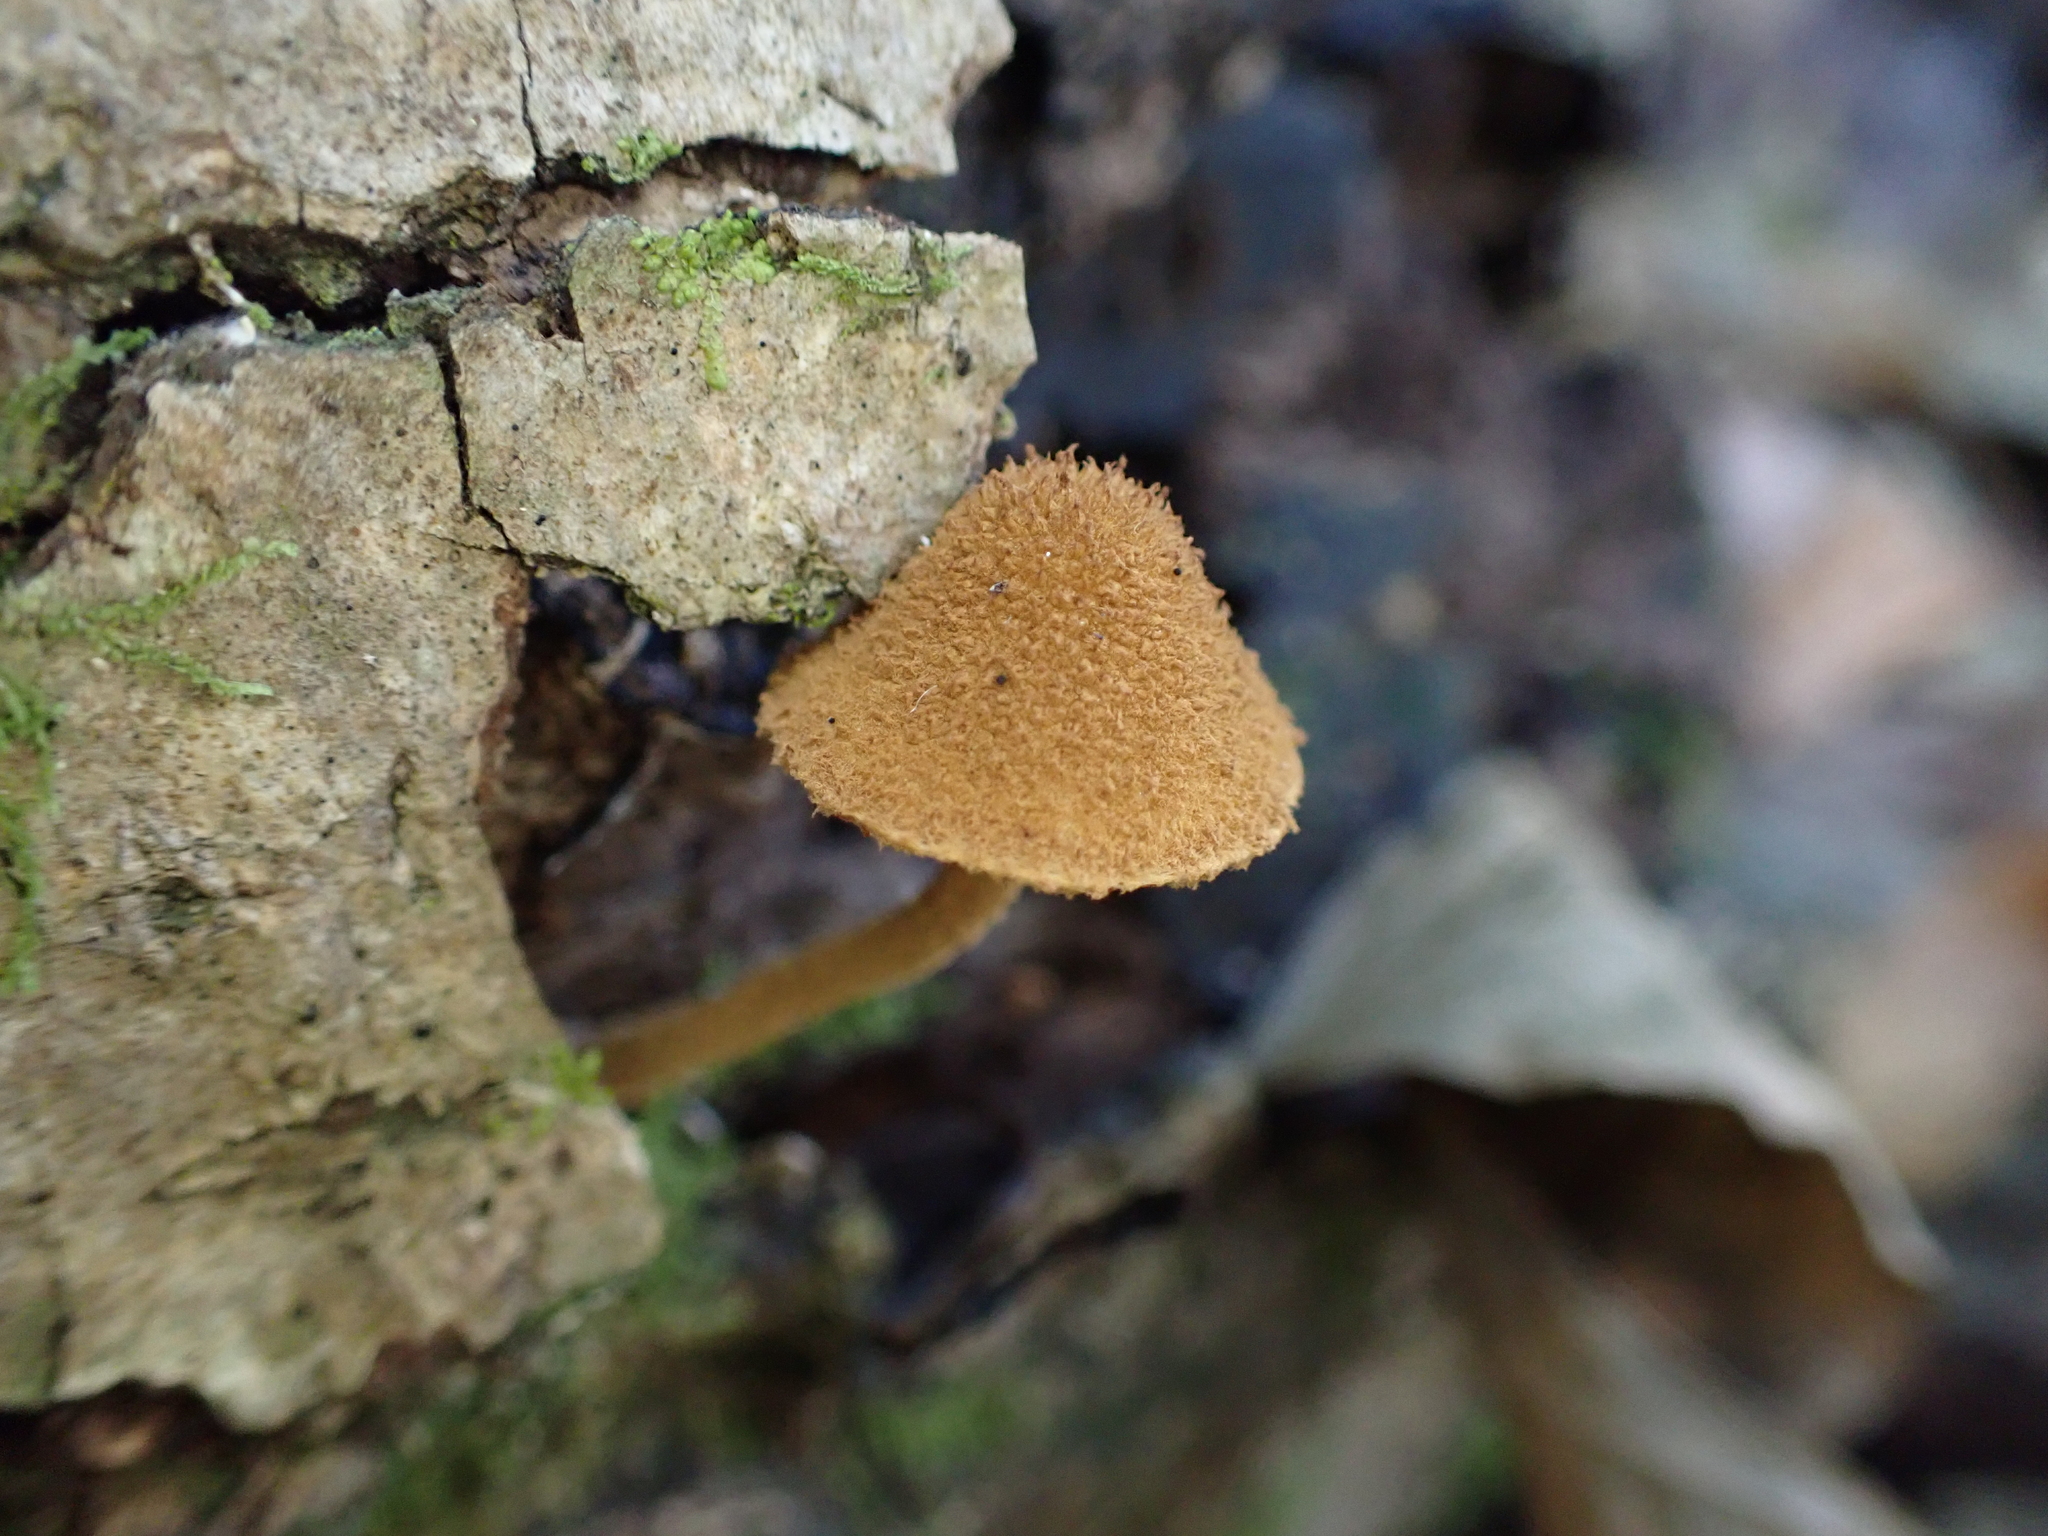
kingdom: Fungi
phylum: Basidiomycota
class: Agaricomycetes
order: Agaricales
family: Tubariaceae
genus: Flammulaster
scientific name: Flammulaster erinaceellus
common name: Powder-scale pholiota
